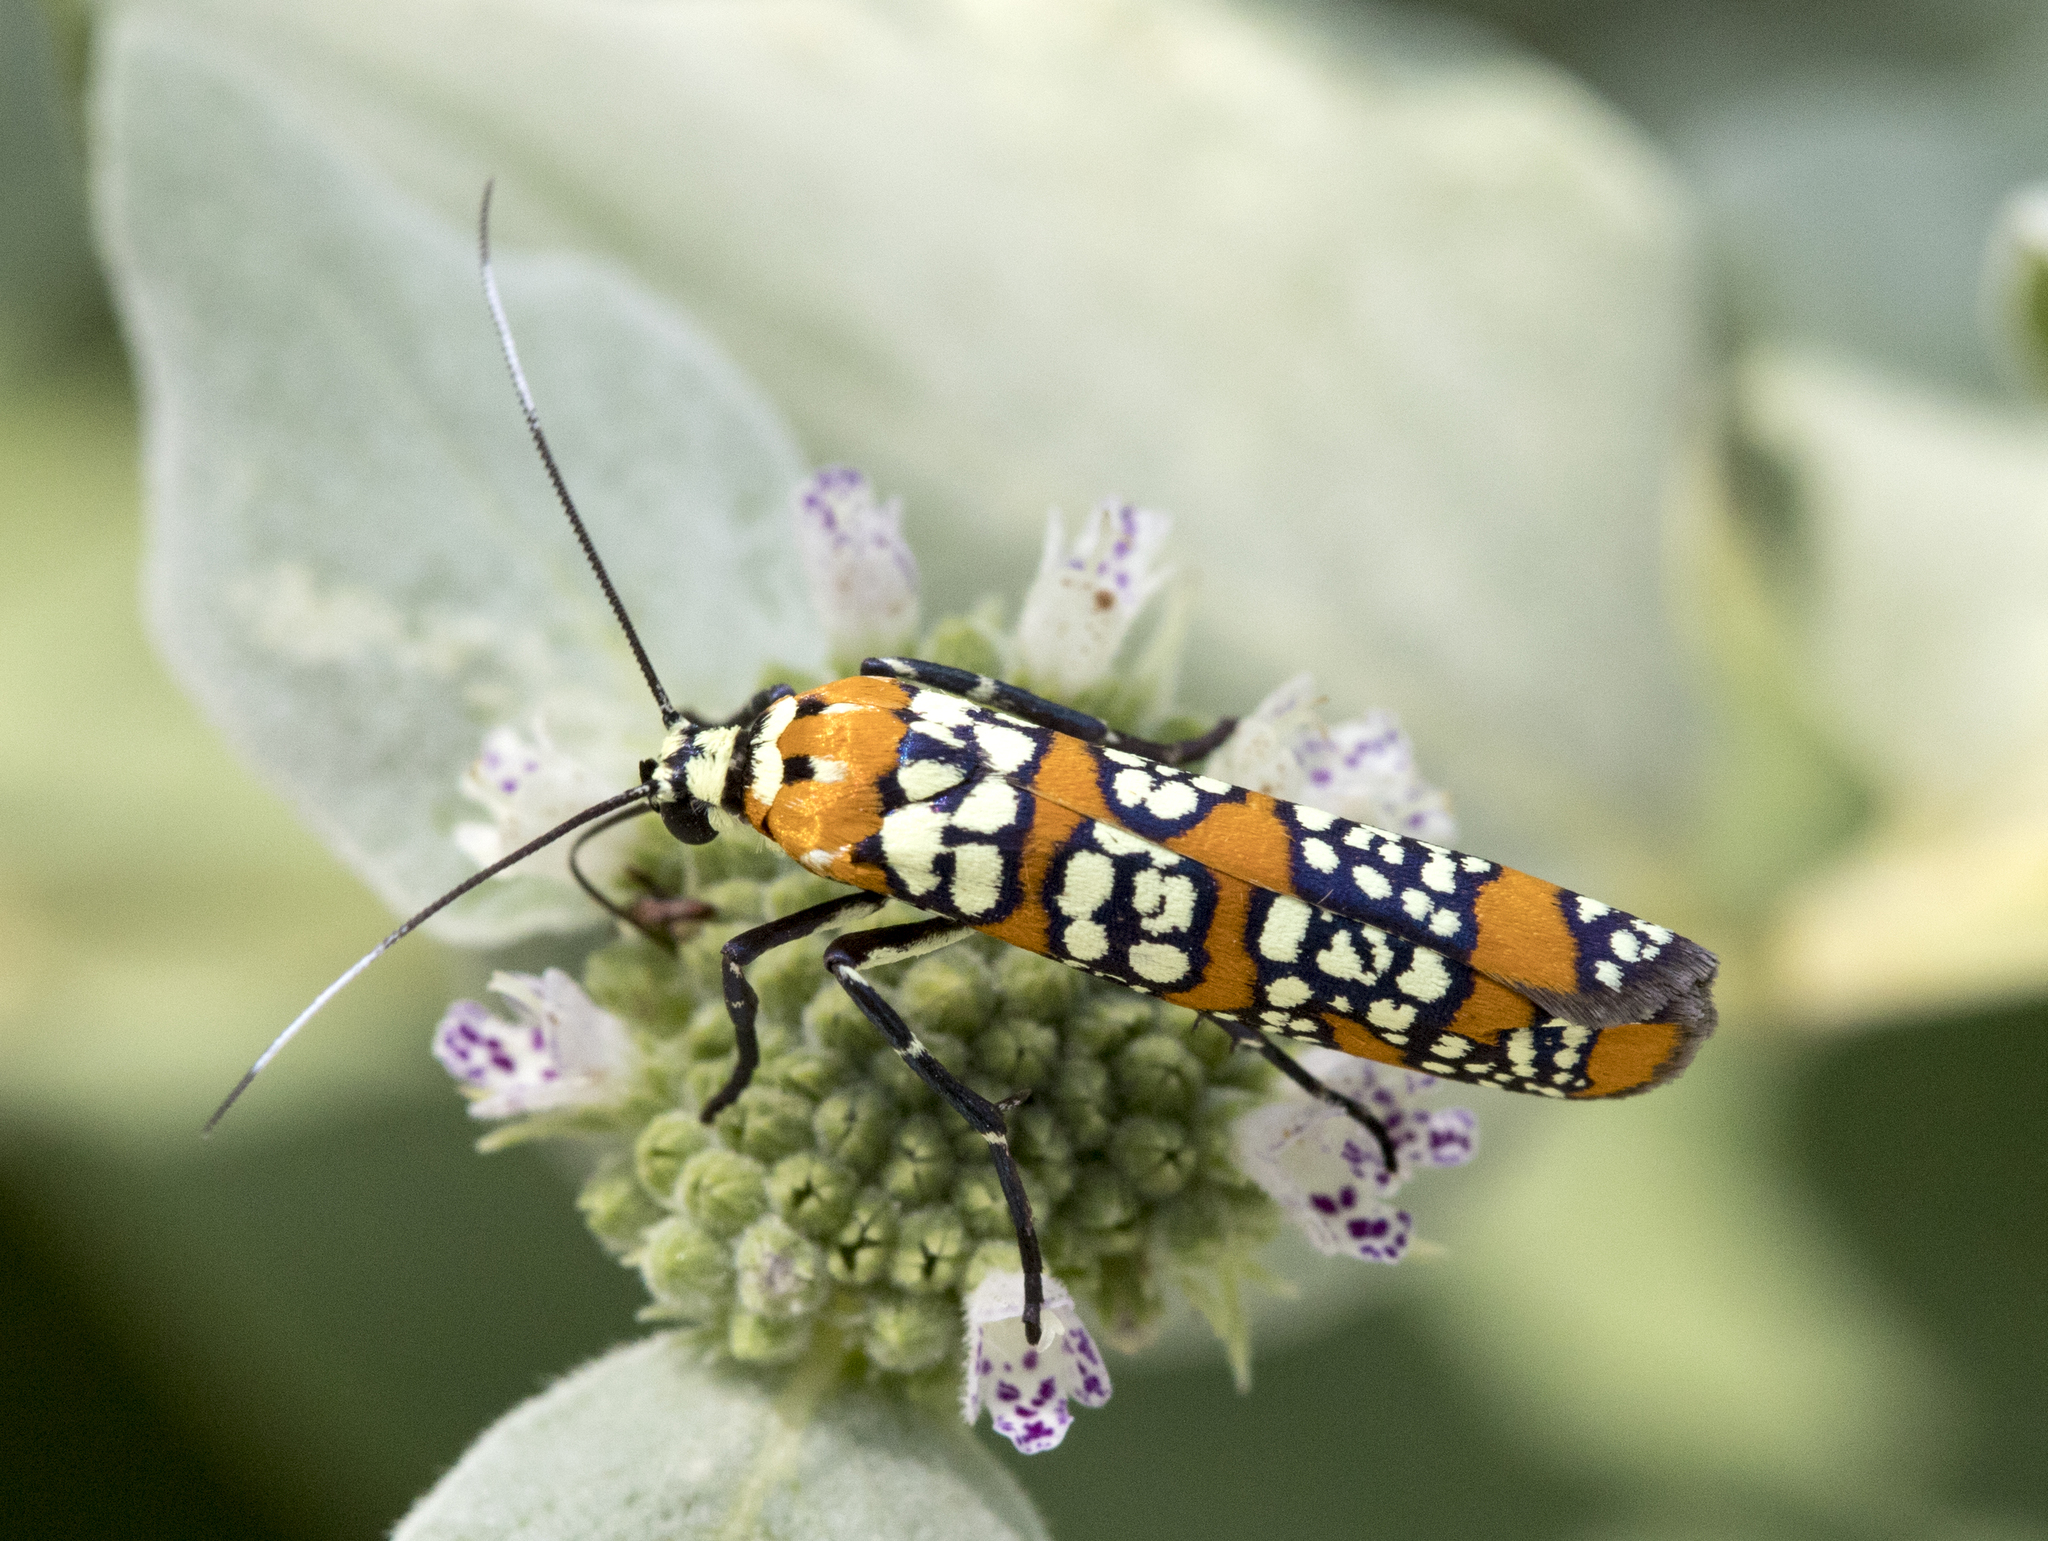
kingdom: Animalia
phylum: Arthropoda
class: Insecta
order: Lepidoptera
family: Attevidae
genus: Atteva
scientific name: Atteva punctella
